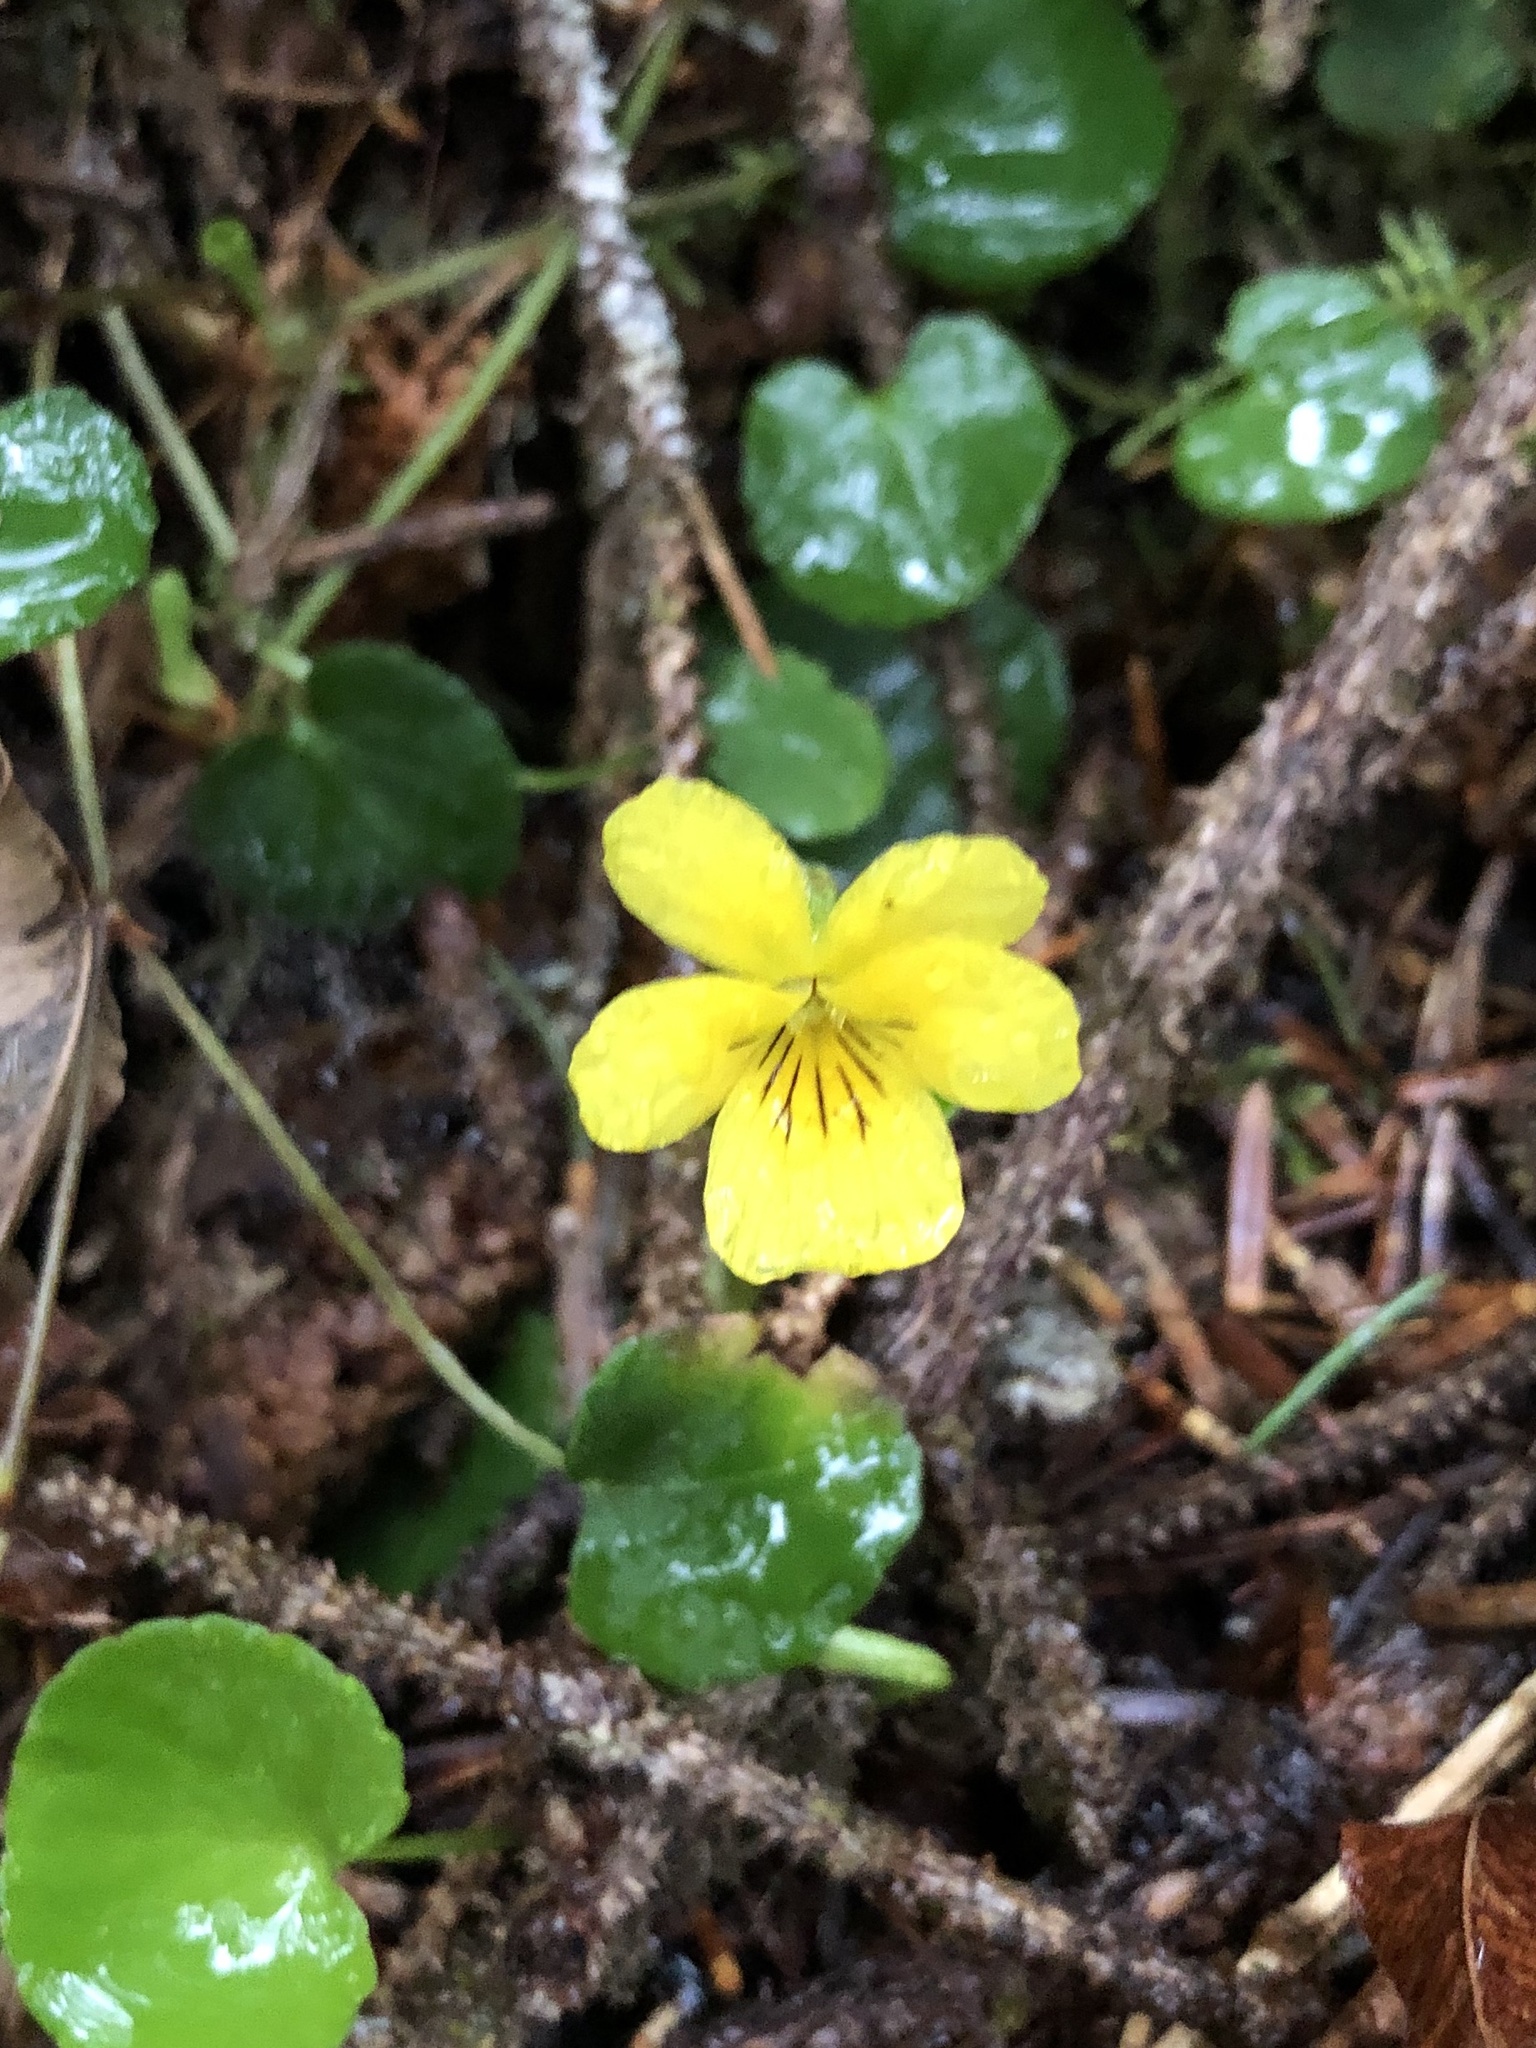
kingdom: Plantae
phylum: Tracheophyta
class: Magnoliopsida
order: Malpighiales
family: Violaceae
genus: Viola
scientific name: Viola sempervirens
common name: Evergreen violet
